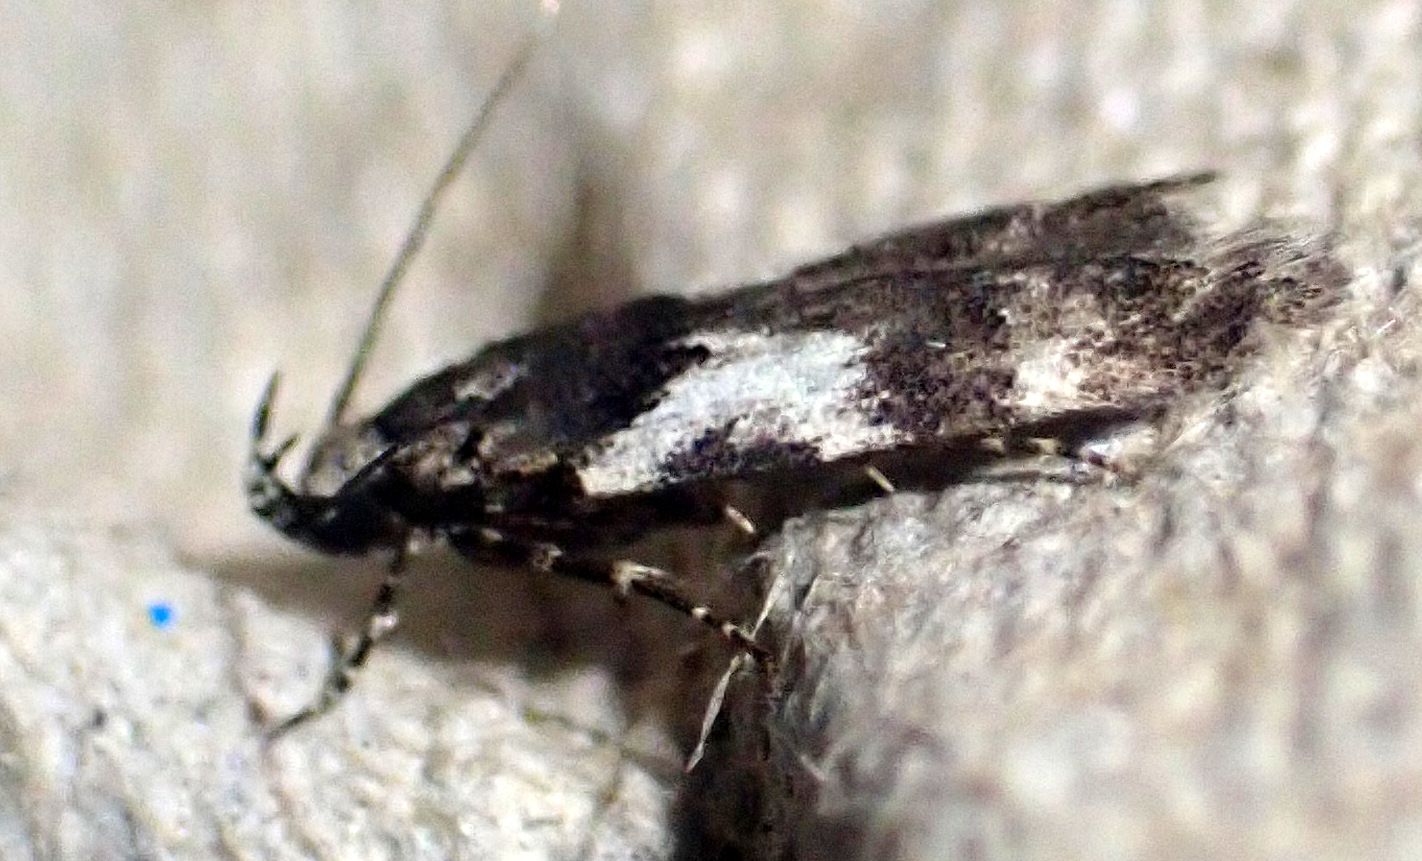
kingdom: Animalia
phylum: Arthropoda
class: Insecta
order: Lepidoptera
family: Gelechiidae
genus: Teleiodes
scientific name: Teleiodes luculella
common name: Crescent groundling
